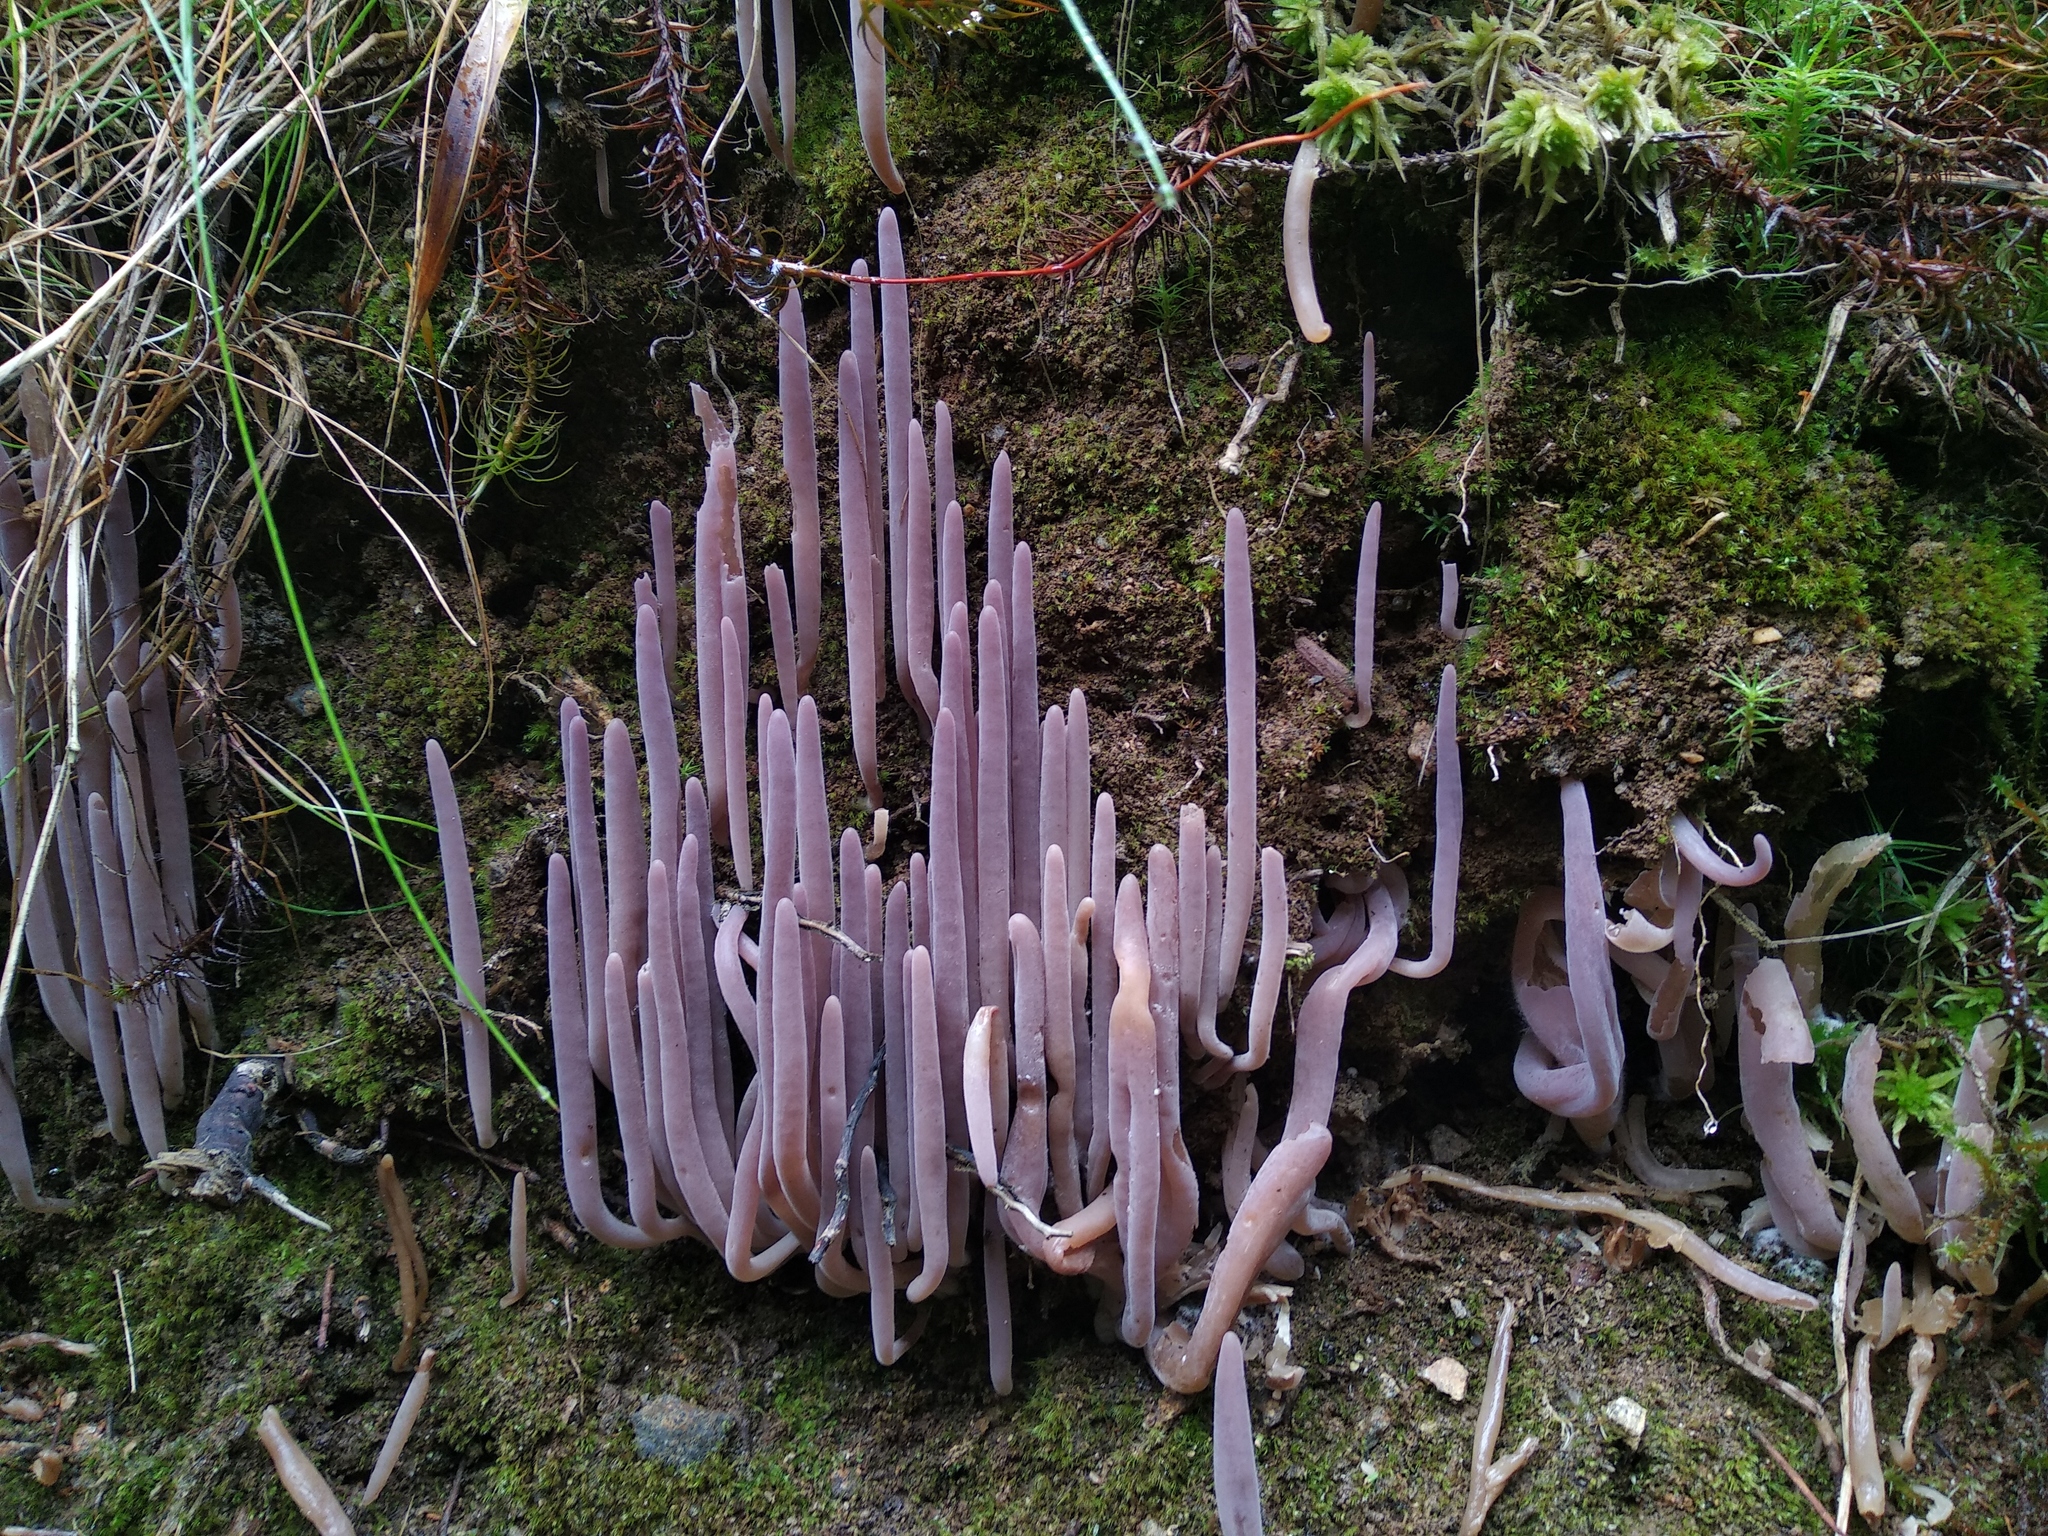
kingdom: Fungi
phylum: Basidiomycota
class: Agaricomycetes
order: Hymenochaetales
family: Rickenellaceae
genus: Alloclavaria
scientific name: Alloclavaria purpurea
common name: Purple spindles
